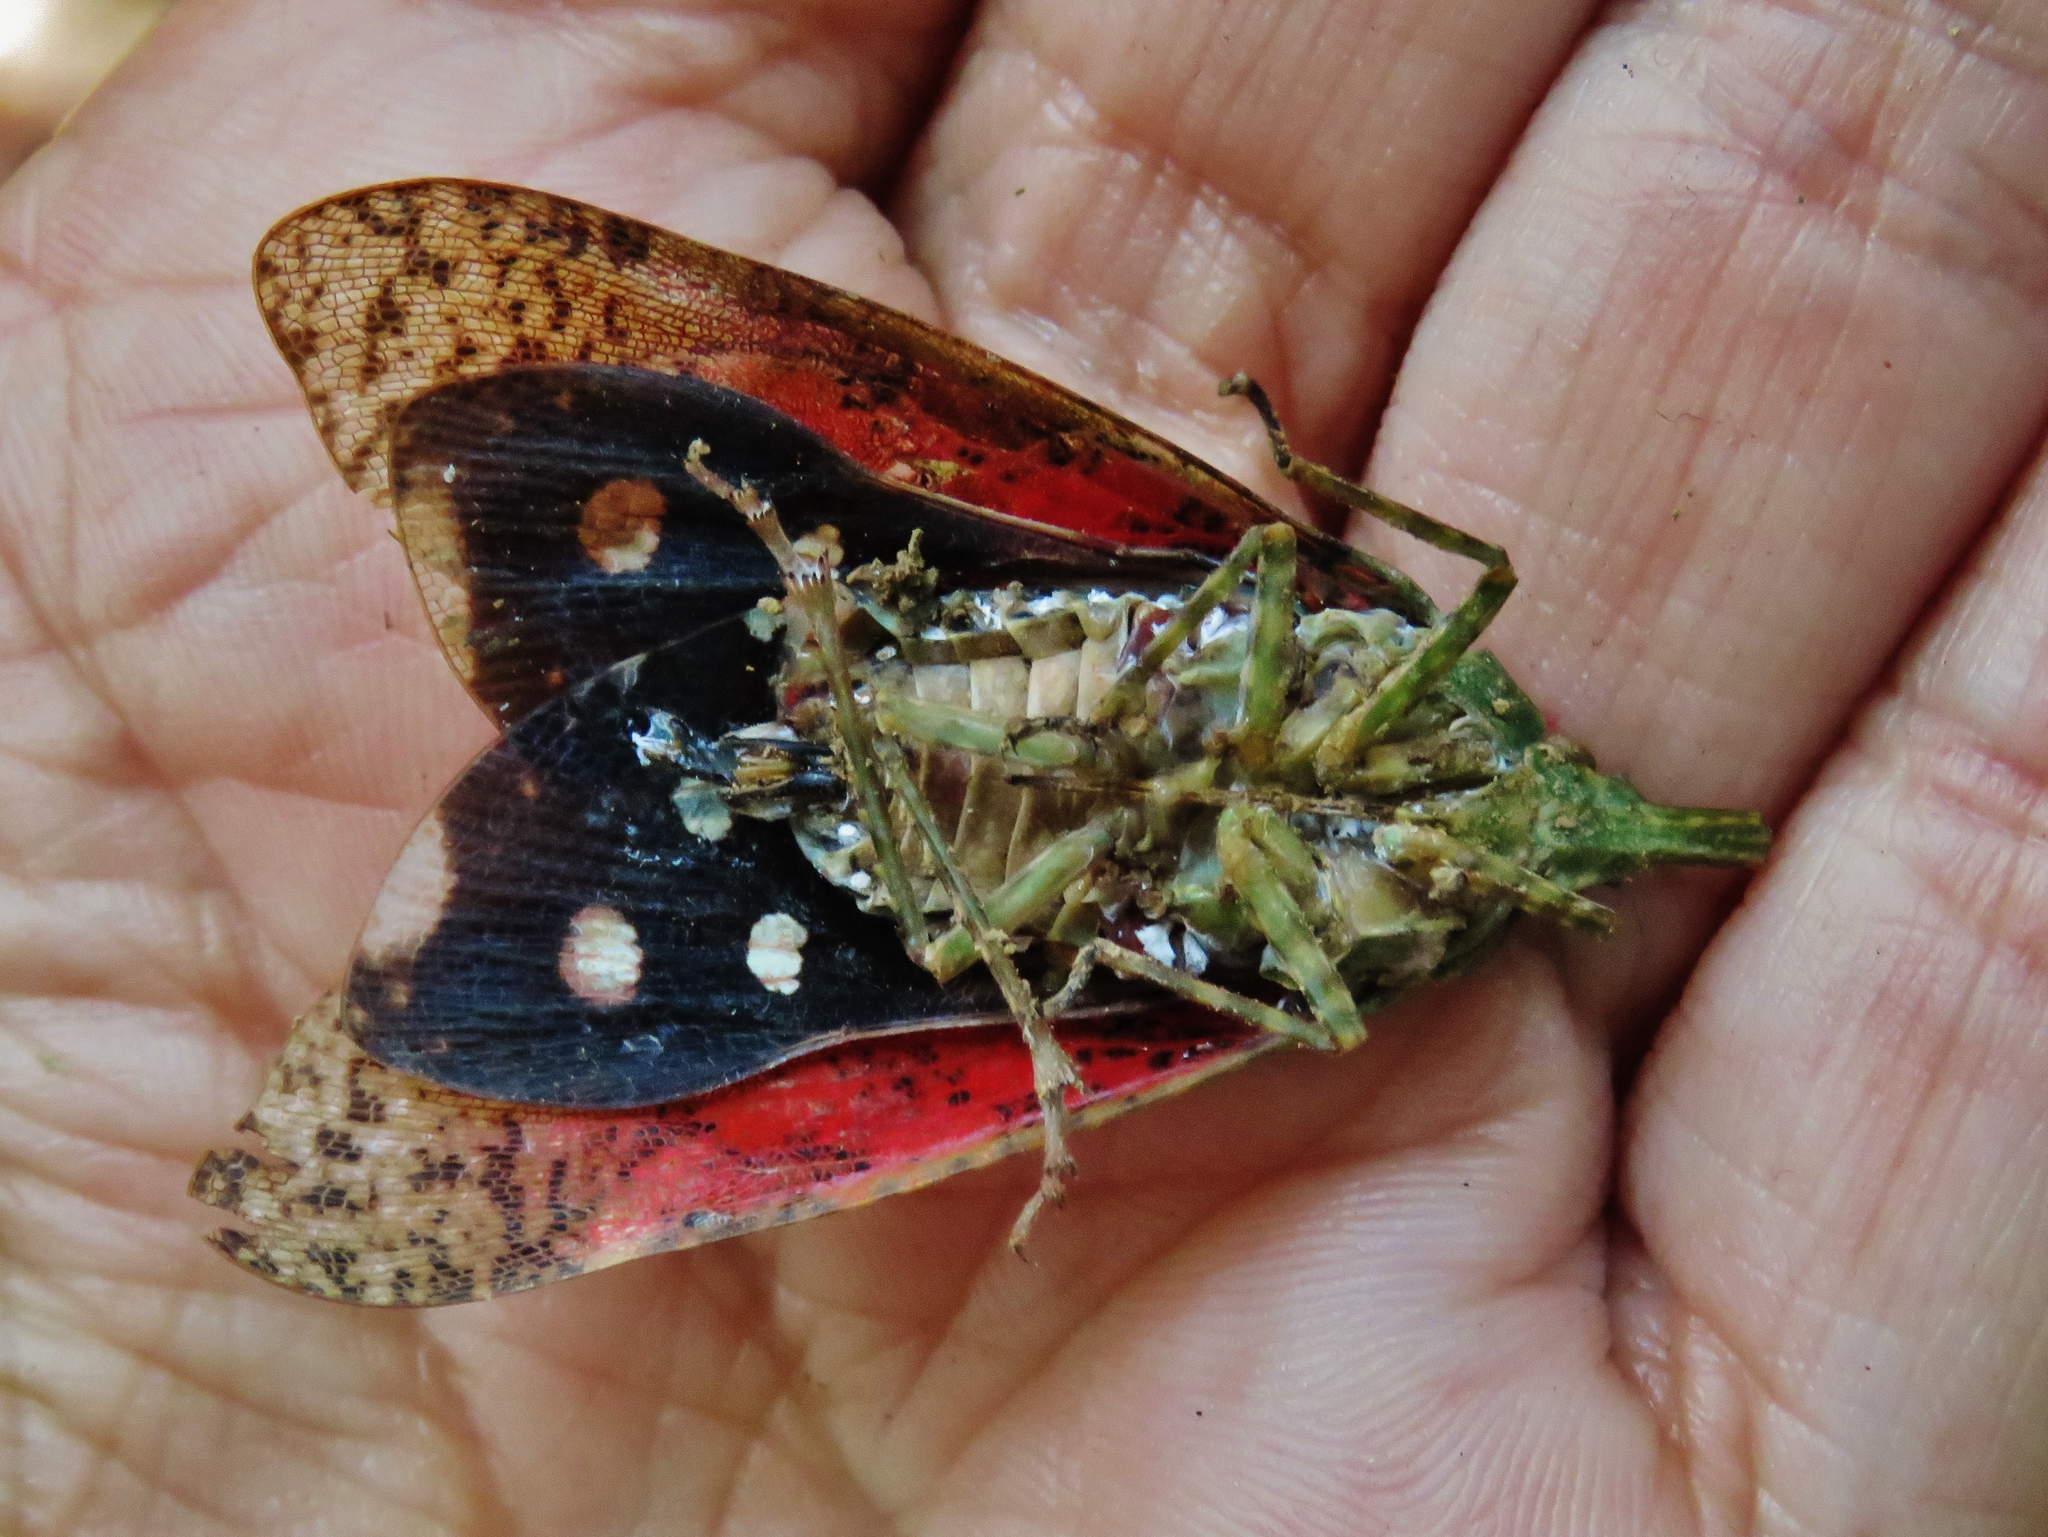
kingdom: Animalia
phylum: Arthropoda
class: Insecta
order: Hemiptera
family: Fulgoridae
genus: Diareusa
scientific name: Diareusa imitatrix
